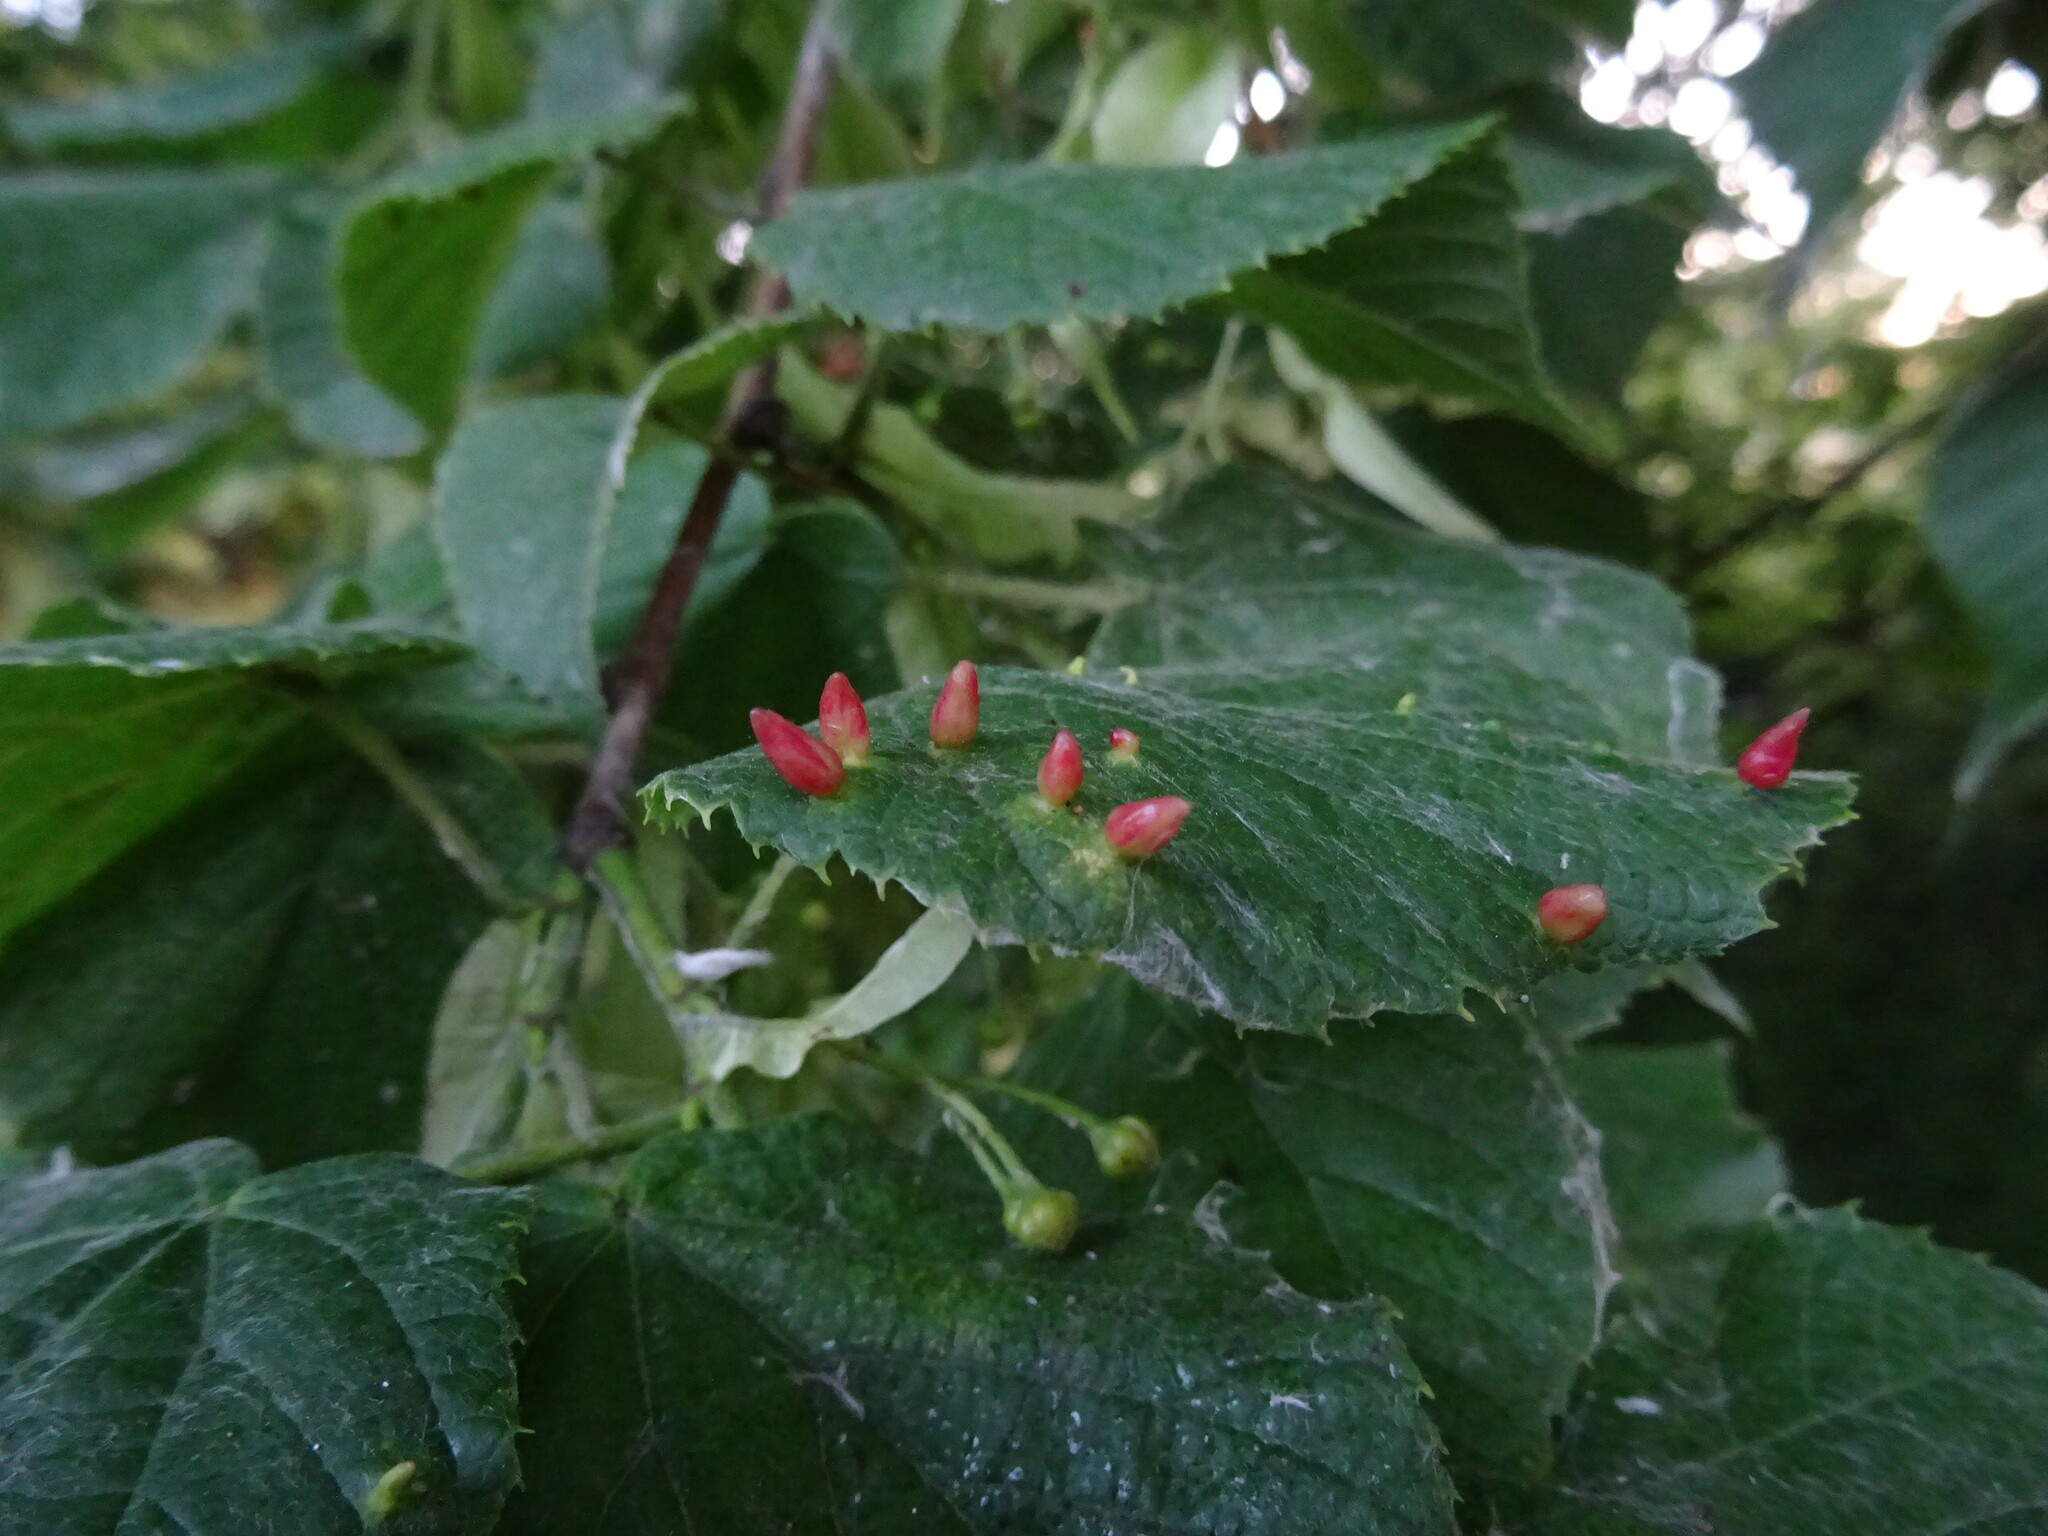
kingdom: Animalia
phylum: Arthropoda
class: Arachnida
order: Trombidiformes
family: Eriophyidae
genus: Eriophyes
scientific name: Eriophyes tiliae
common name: Red nail gall mite
